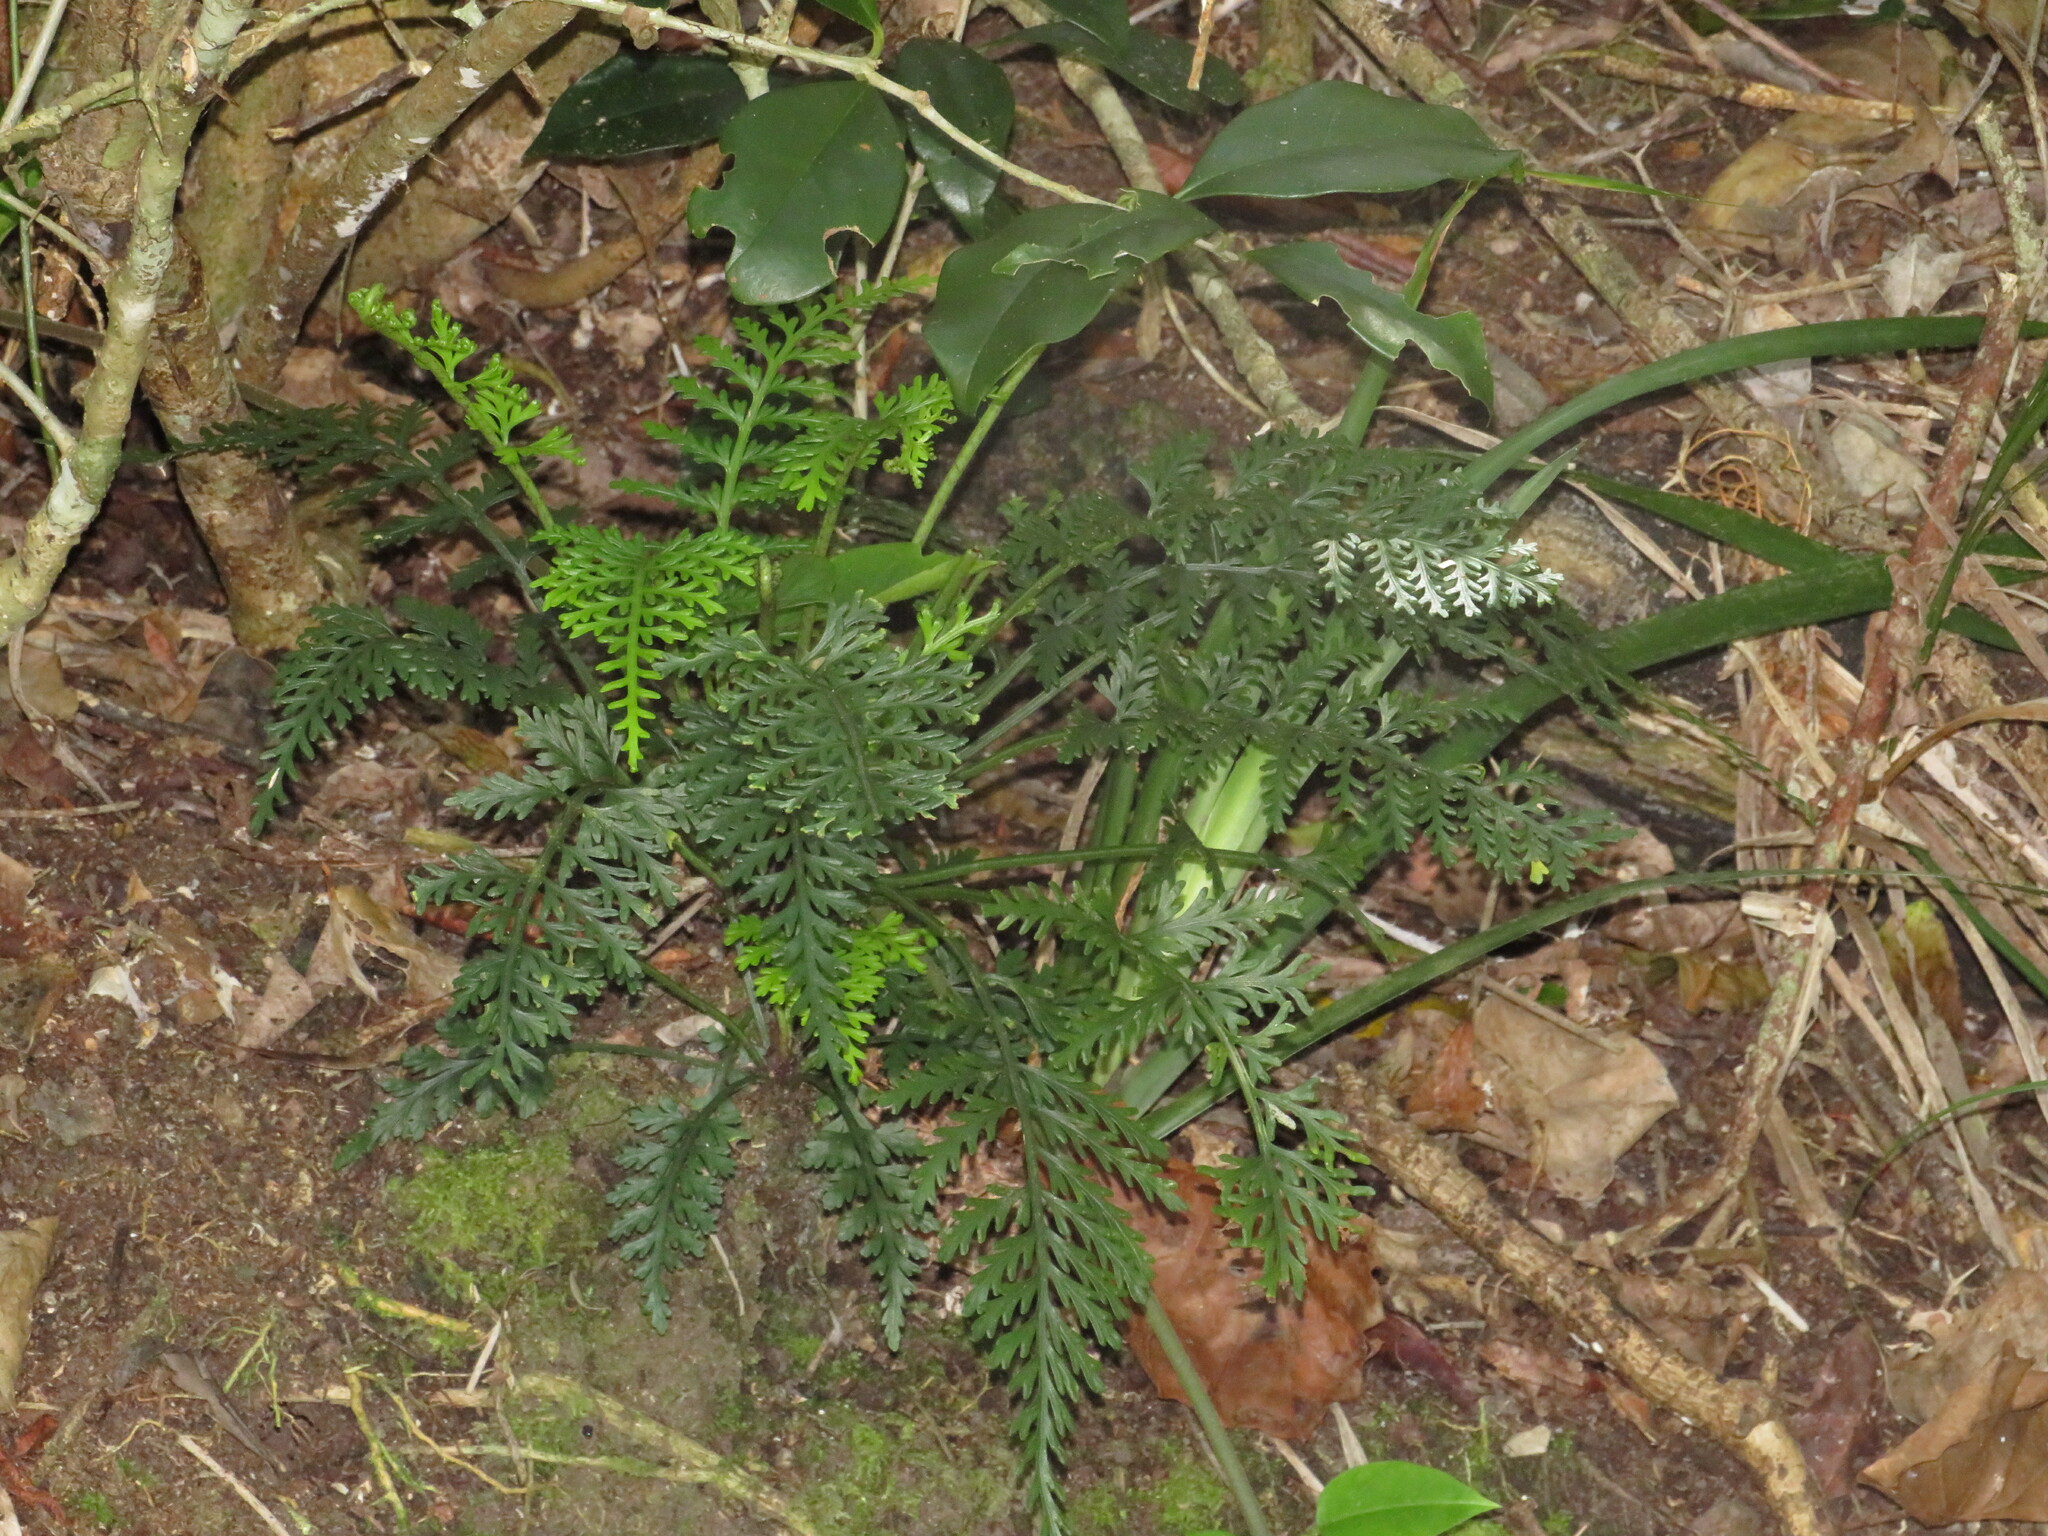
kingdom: Plantae
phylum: Tracheophyta
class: Polypodiopsida
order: Polypodiales
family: Aspleniaceae
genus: Asplenium
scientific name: Asplenium rutifolium
